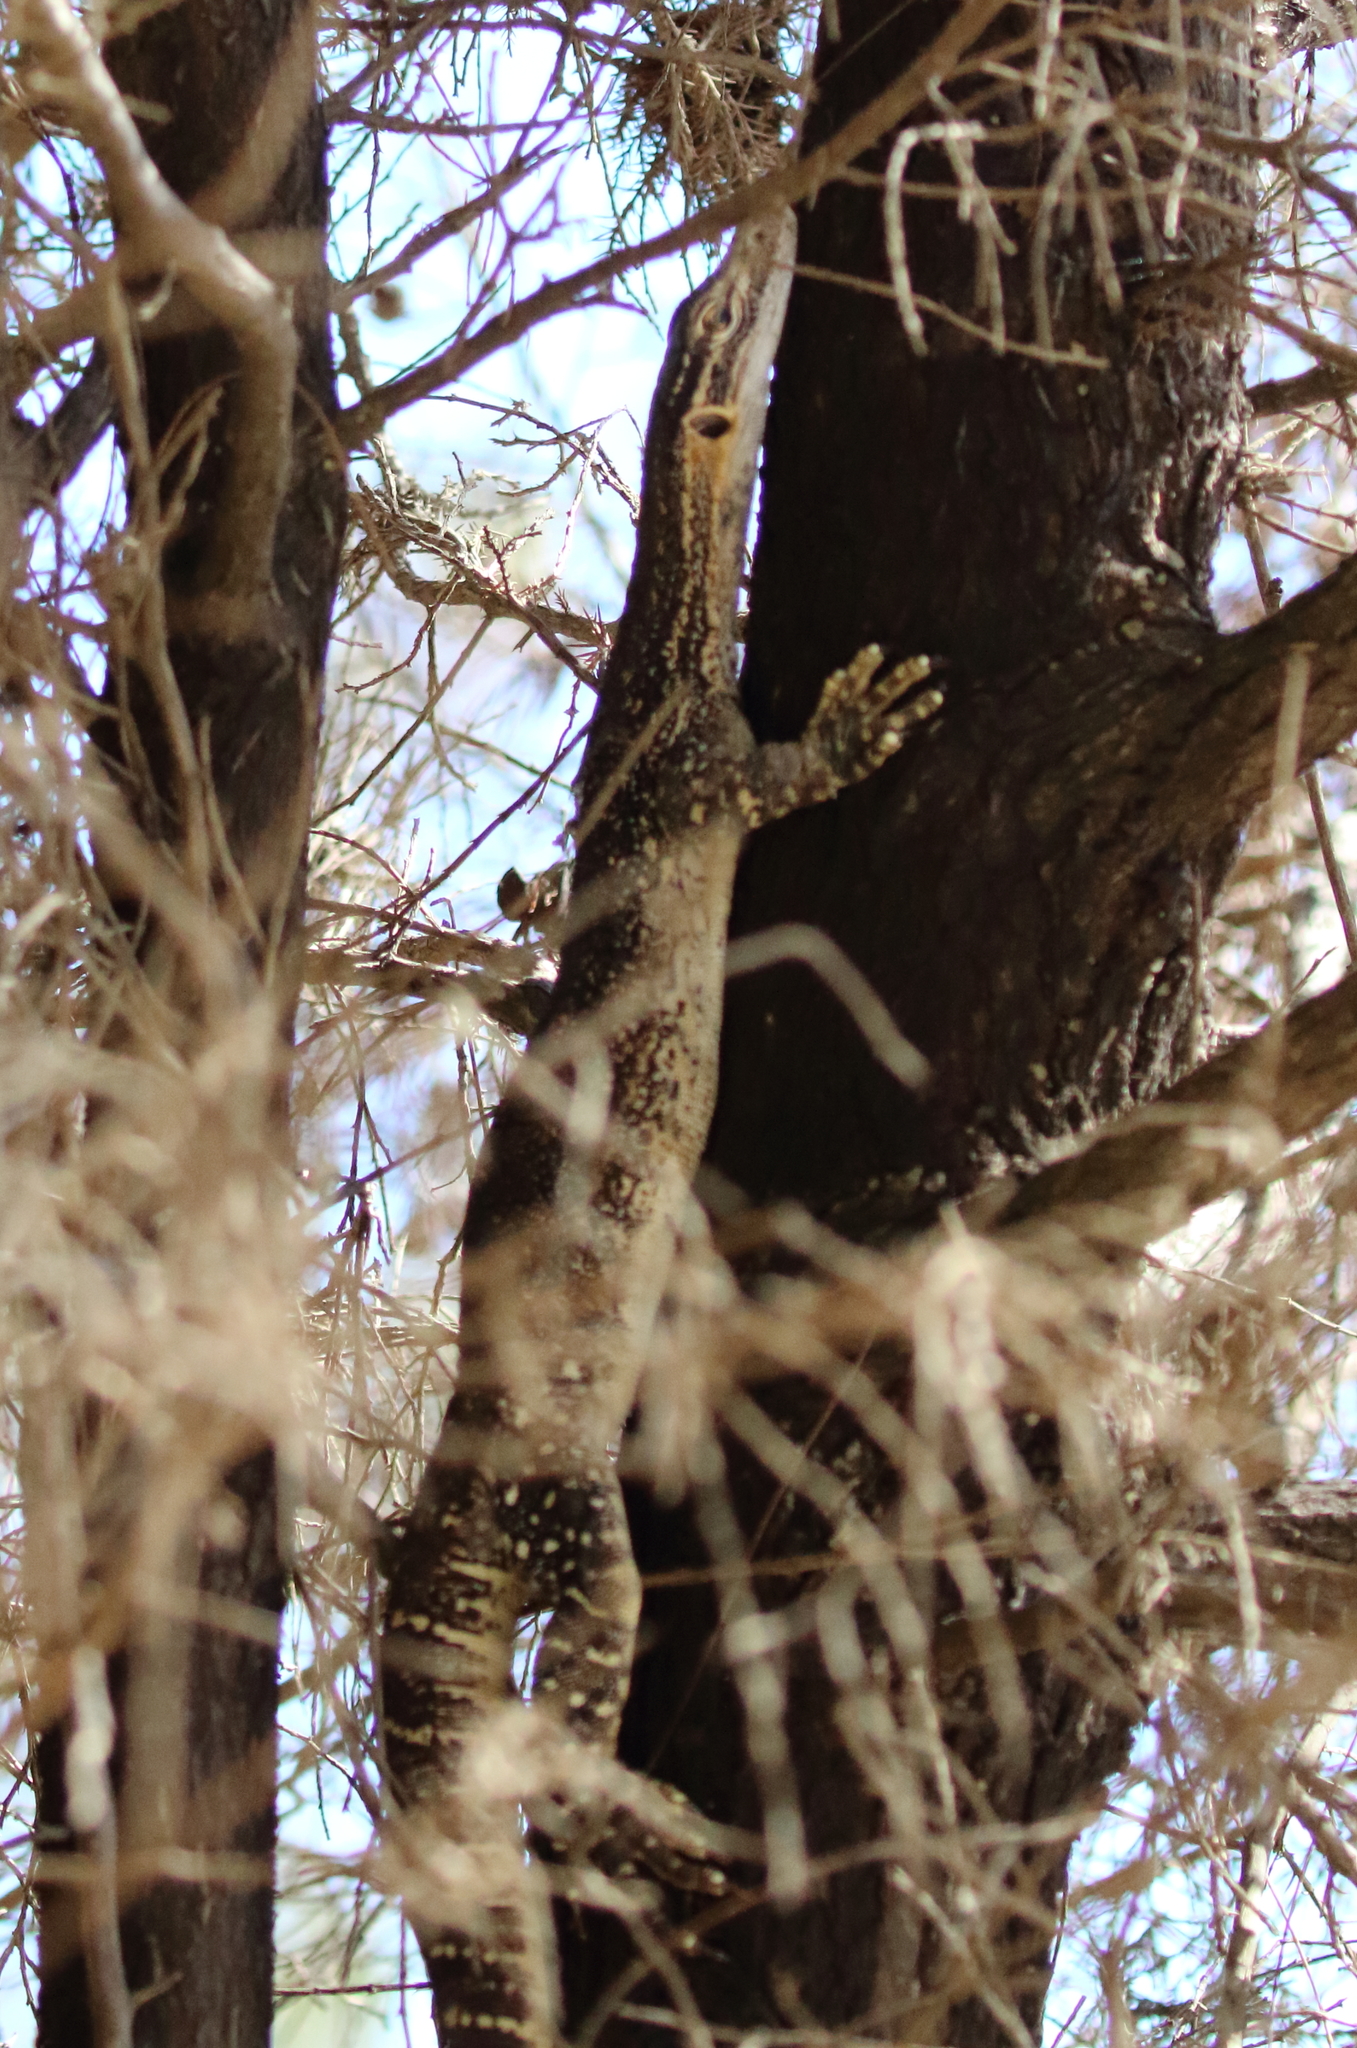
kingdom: Animalia
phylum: Chordata
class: Squamata
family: Varanidae
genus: Varanus
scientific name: Varanus gouldii
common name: Gould's goanna
